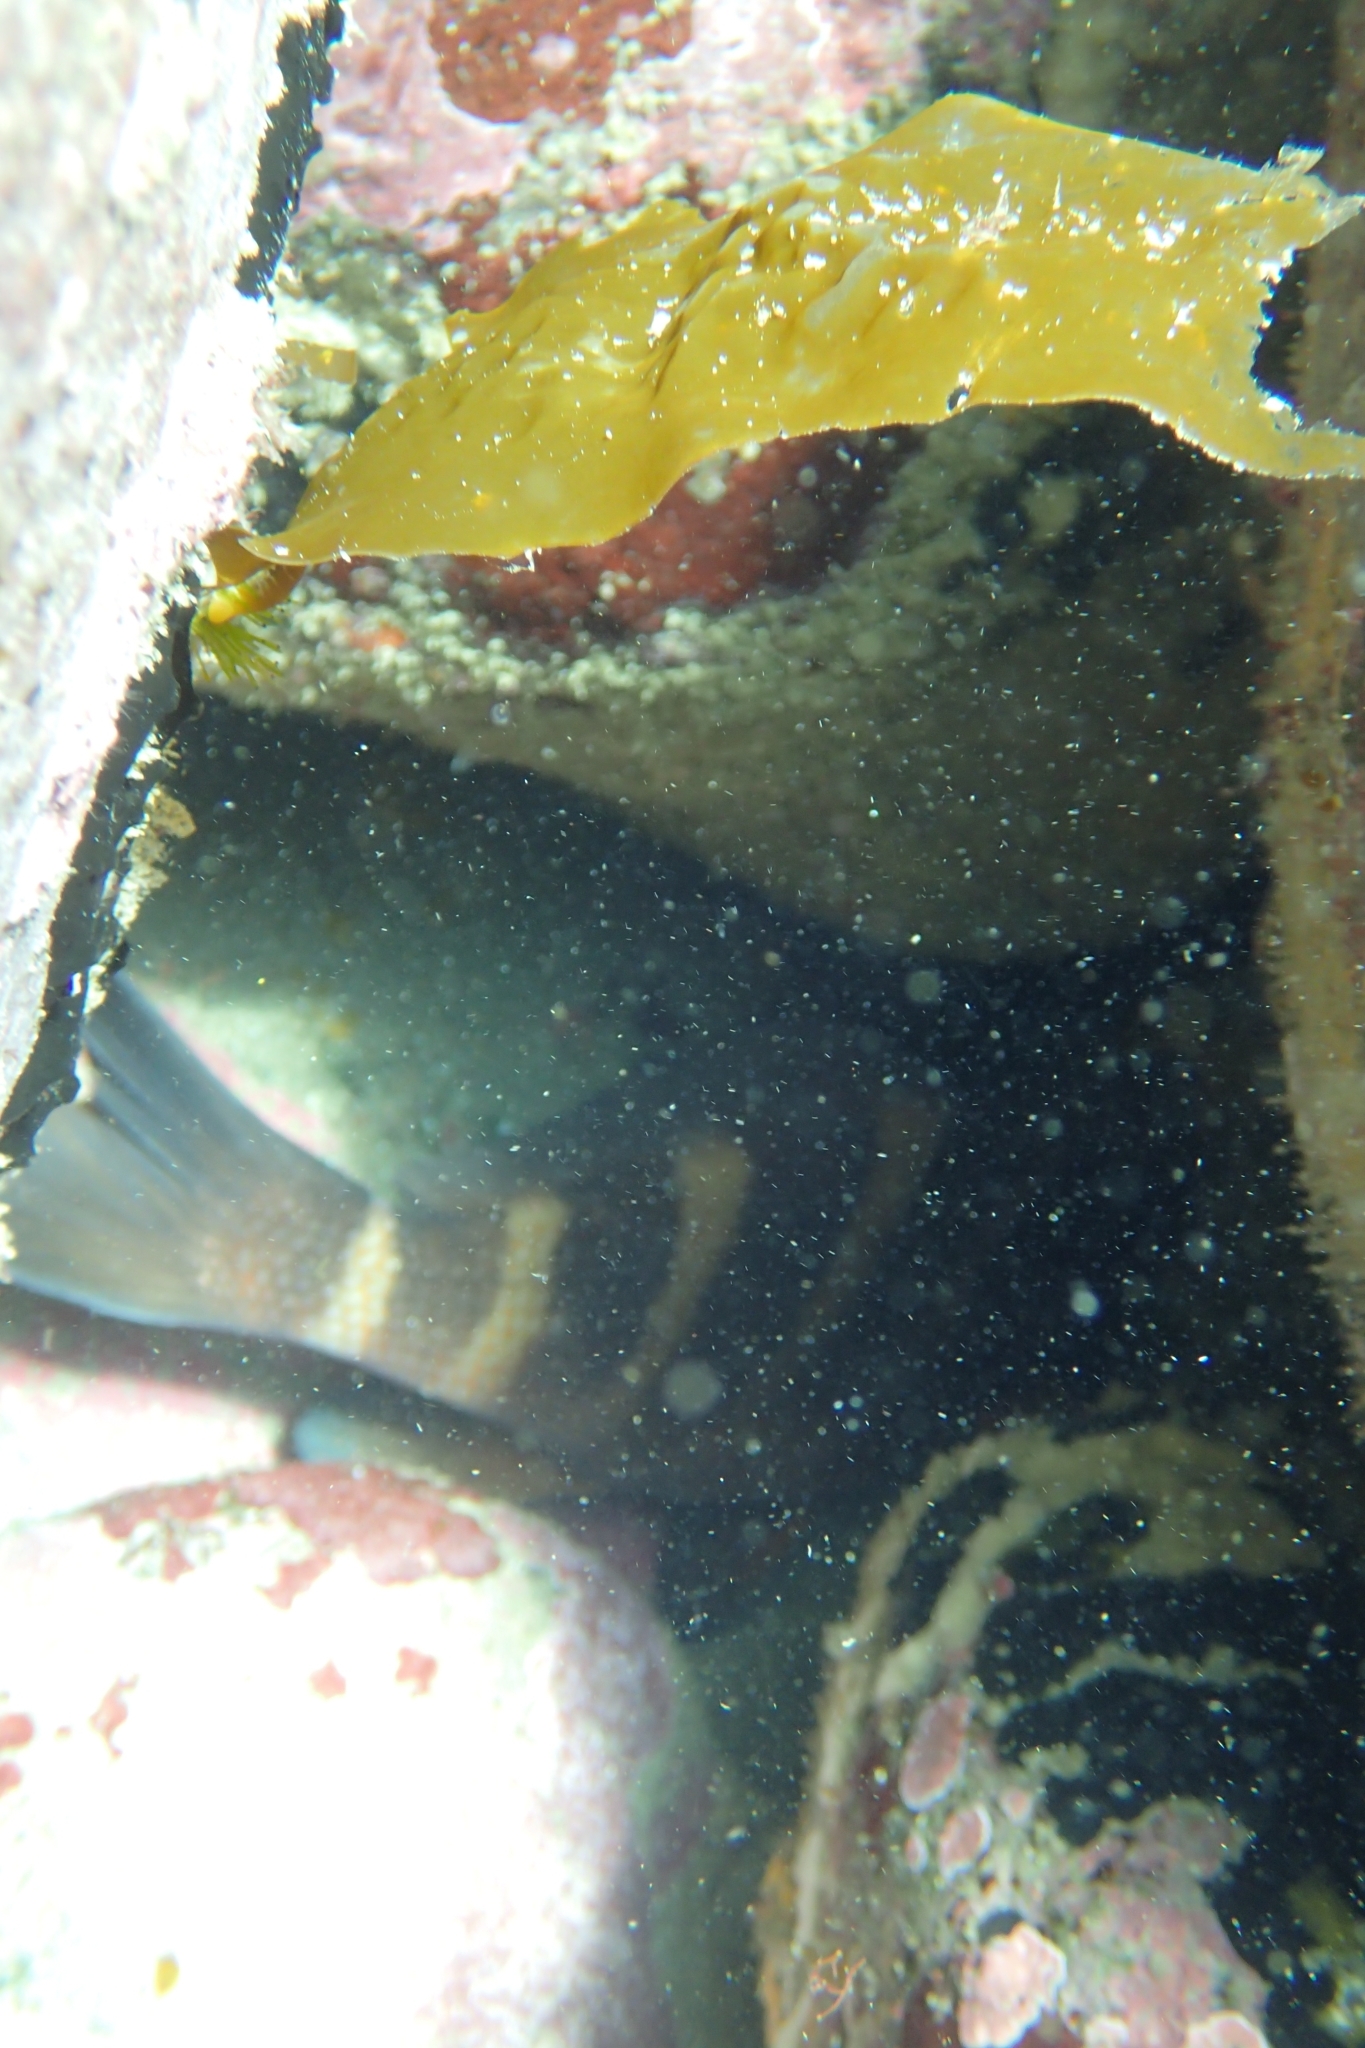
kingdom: Animalia
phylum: Chordata
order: Perciformes
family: Cheilodactylidae
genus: Cheilodactylus
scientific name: Cheilodactylus spectabilis
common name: Red moki
